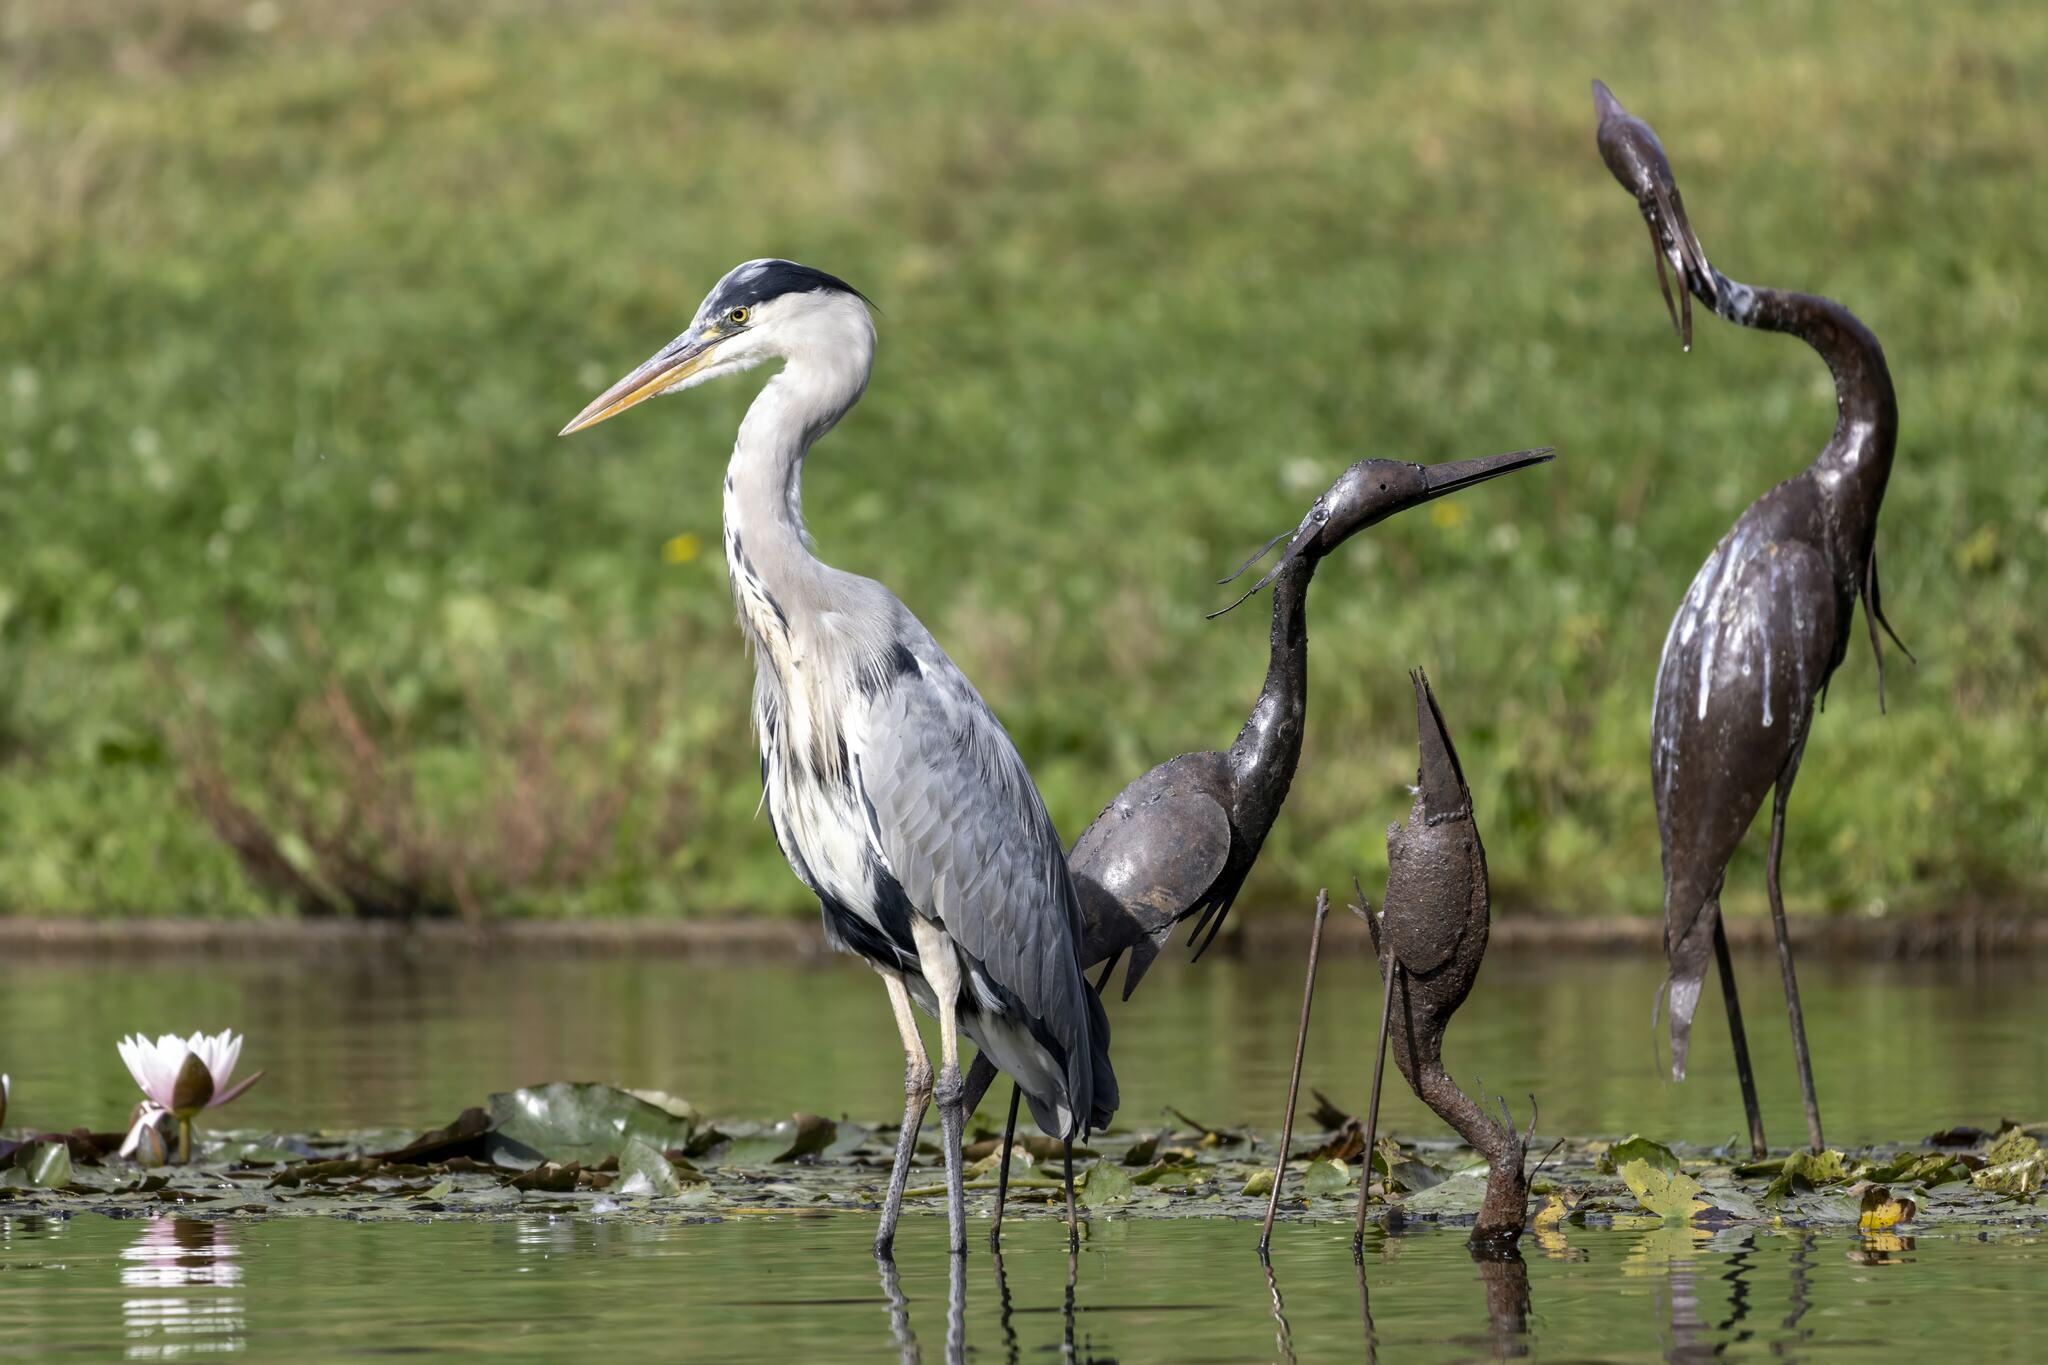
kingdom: Animalia
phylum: Chordata
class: Aves
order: Pelecaniformes
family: Ardeidae
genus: Ardea
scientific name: Ardea cinerea
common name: Grey heron
